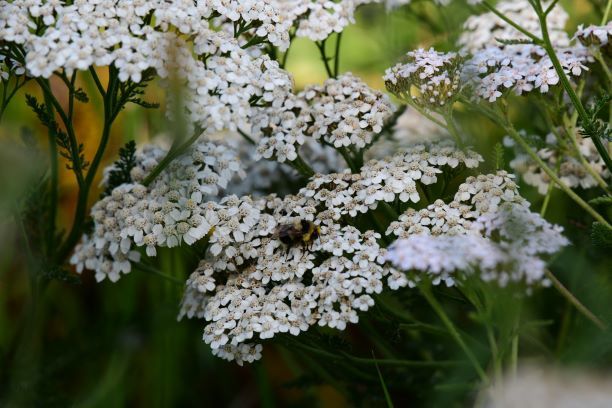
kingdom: Plantae
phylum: Tracheophyta
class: Magnoliopsida
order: Asterales
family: Asteraceae
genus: Achillea
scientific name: Achillea millefolium
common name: Yarrow
